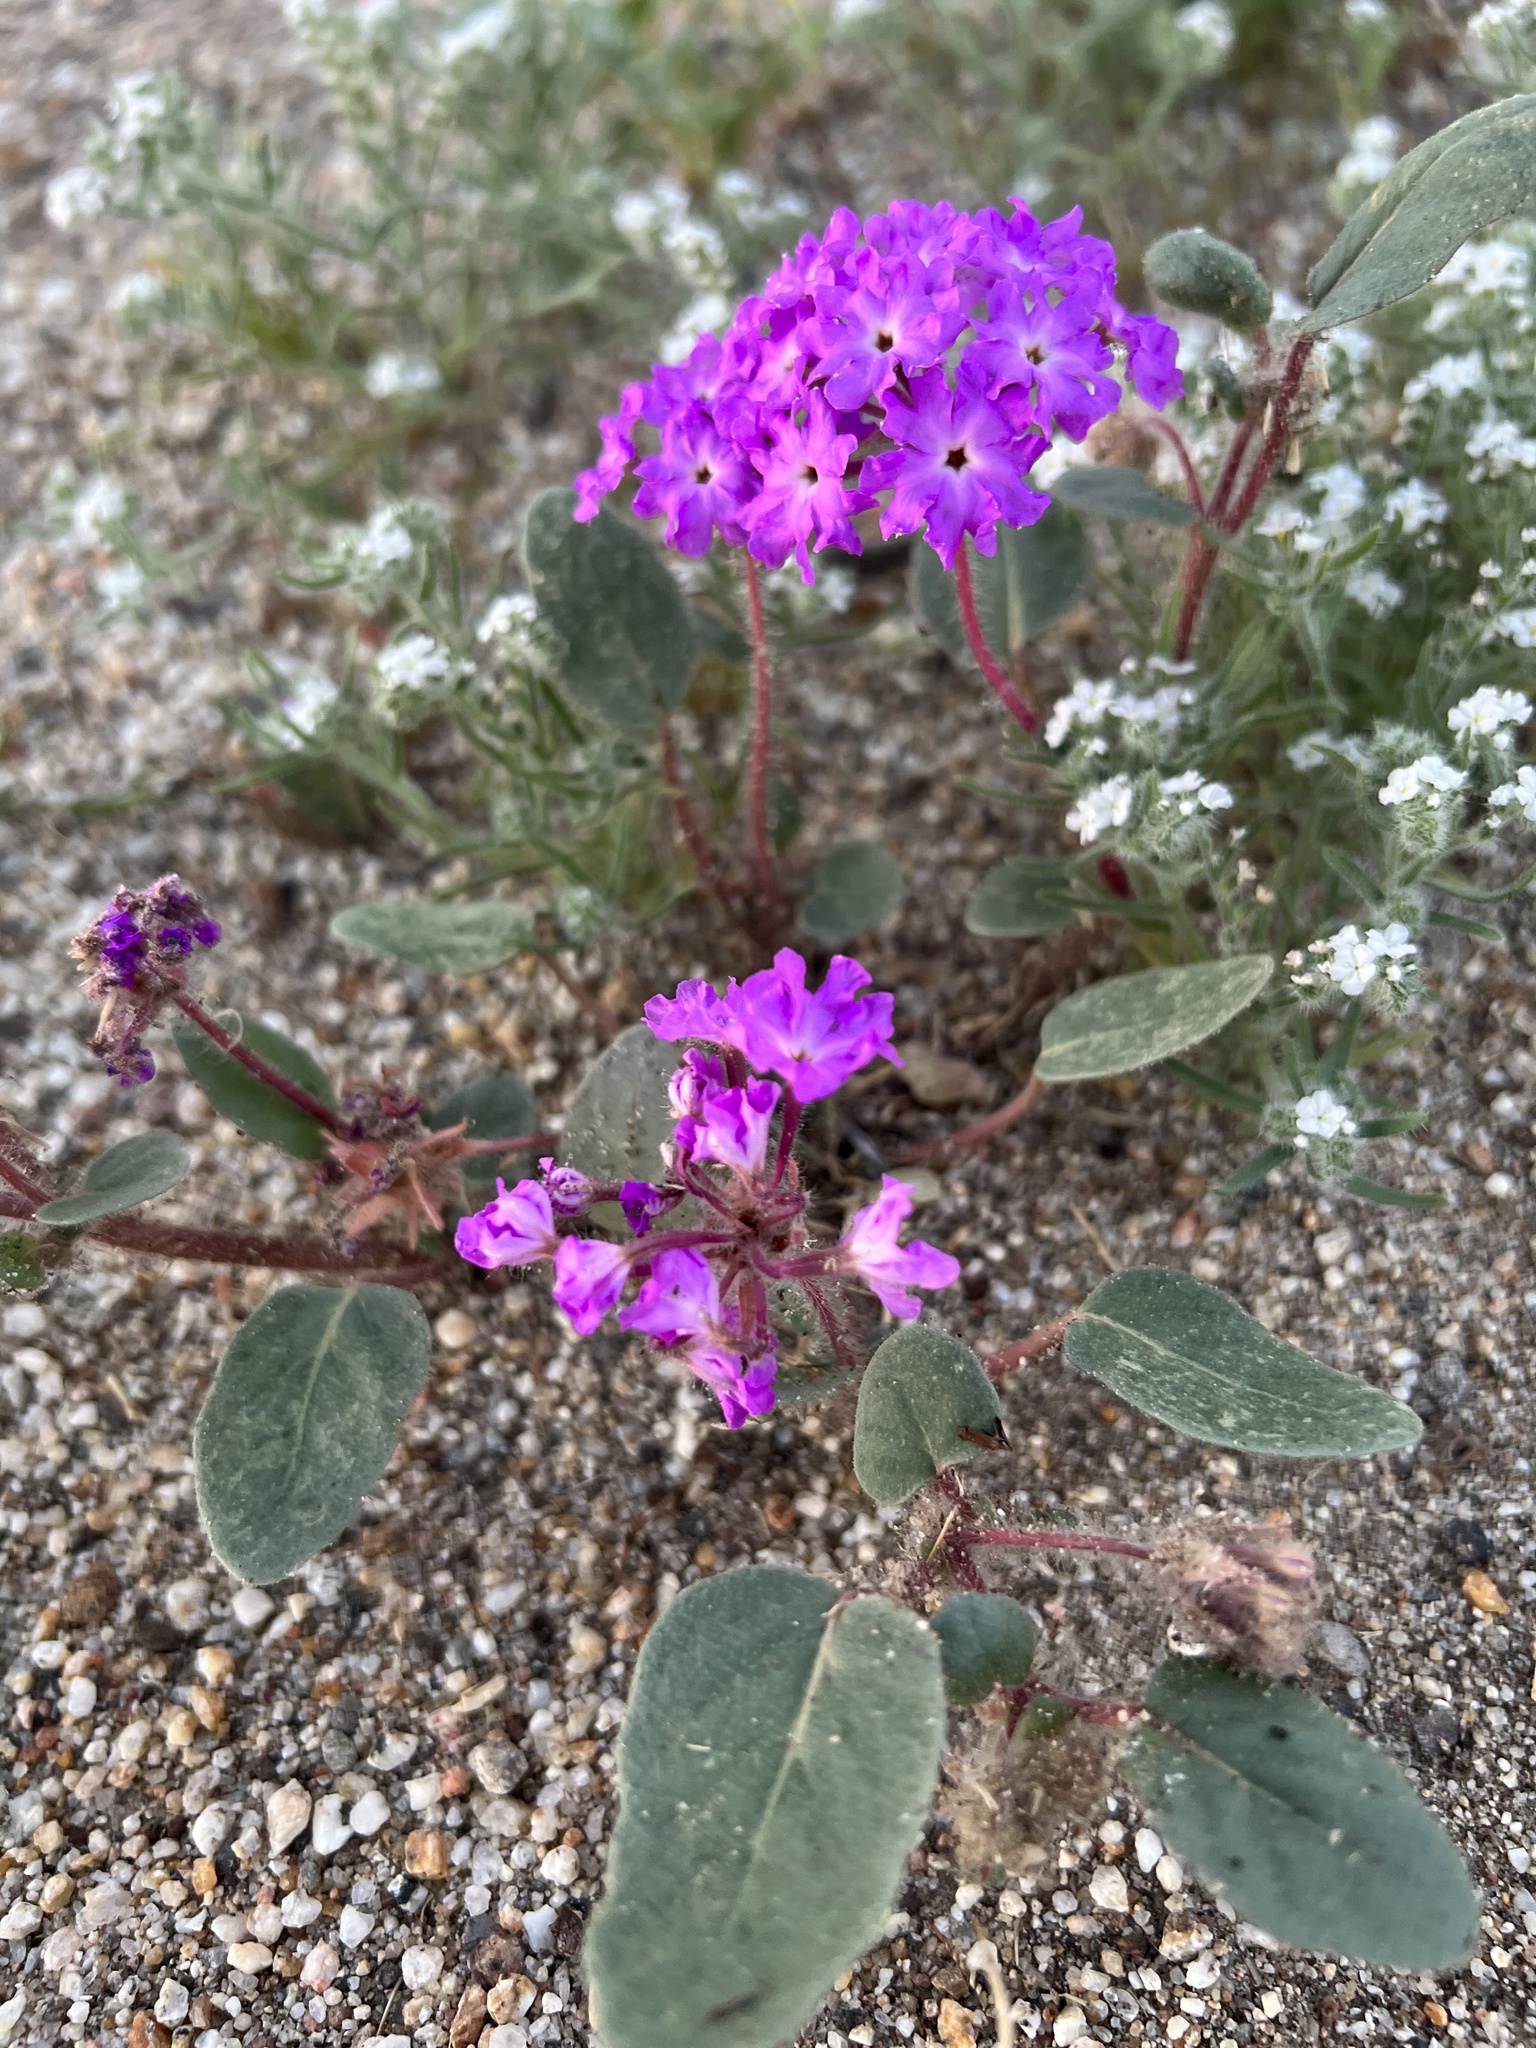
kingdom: Plantae
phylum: Tracheophyta
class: Magnoliopsida
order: Caryophyllales
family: Nyctaginaceae
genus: Abronia
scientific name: Abronia villosa
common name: Desert sand-verbena
